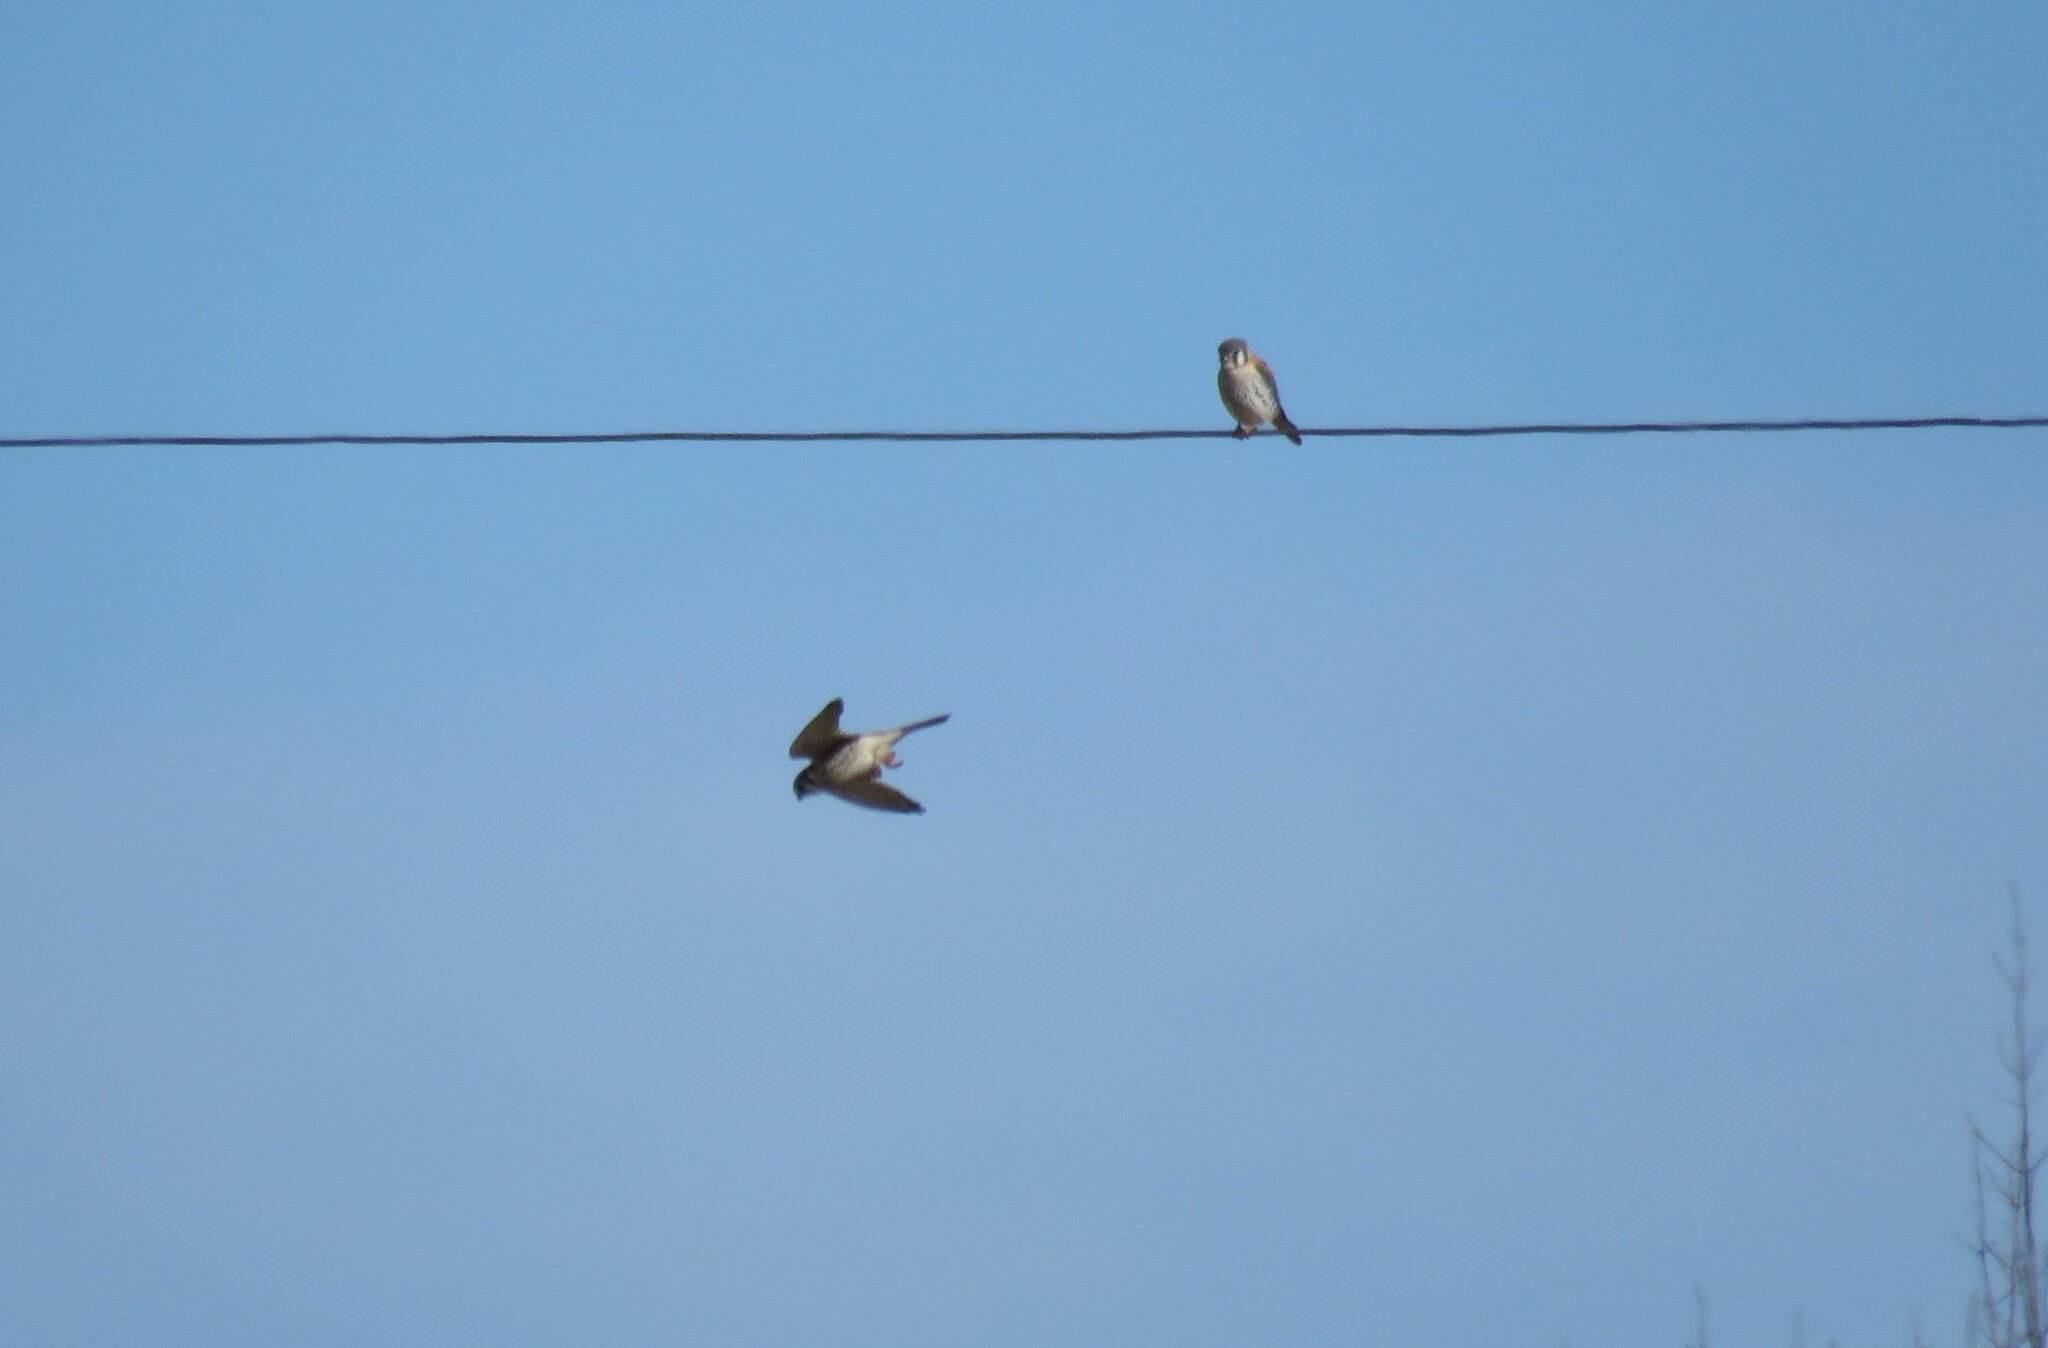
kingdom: Animalia
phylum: Chordata
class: Aves
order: Falconiformes
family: Falconidae
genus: Falco
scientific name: Falco sparverius
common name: American kestrel
